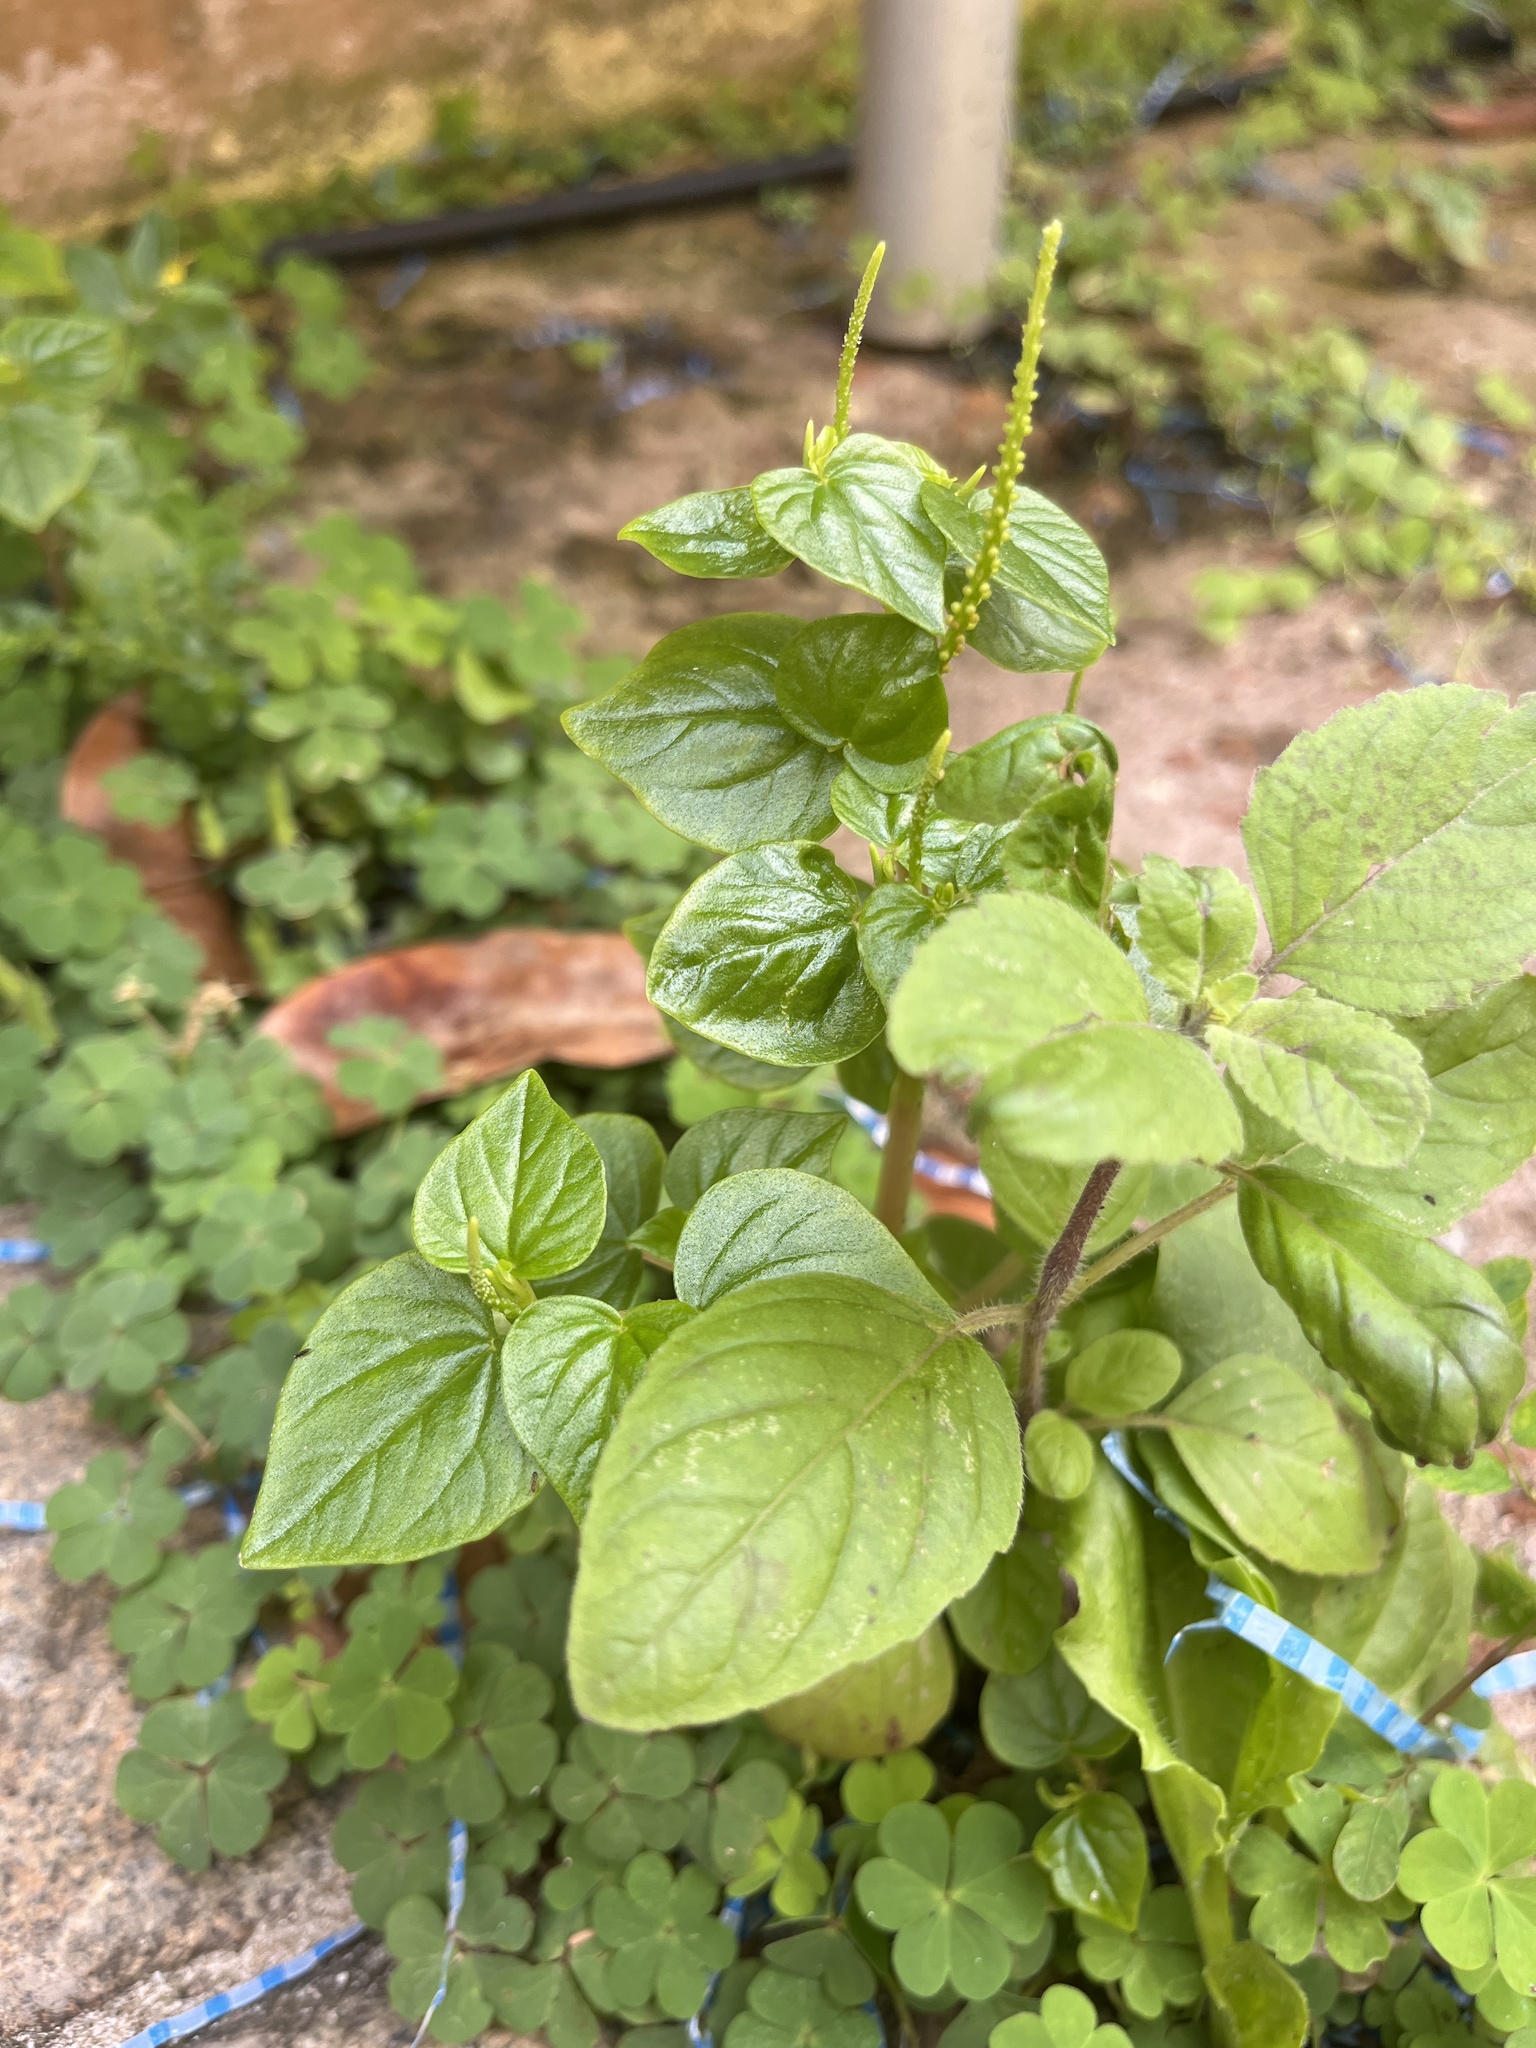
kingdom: Plantae
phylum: Tracheophyta
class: Magnoliopsida
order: Piperales
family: Piperaceae
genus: Peperomia
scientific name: Peperomia pellucida
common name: Man to man
